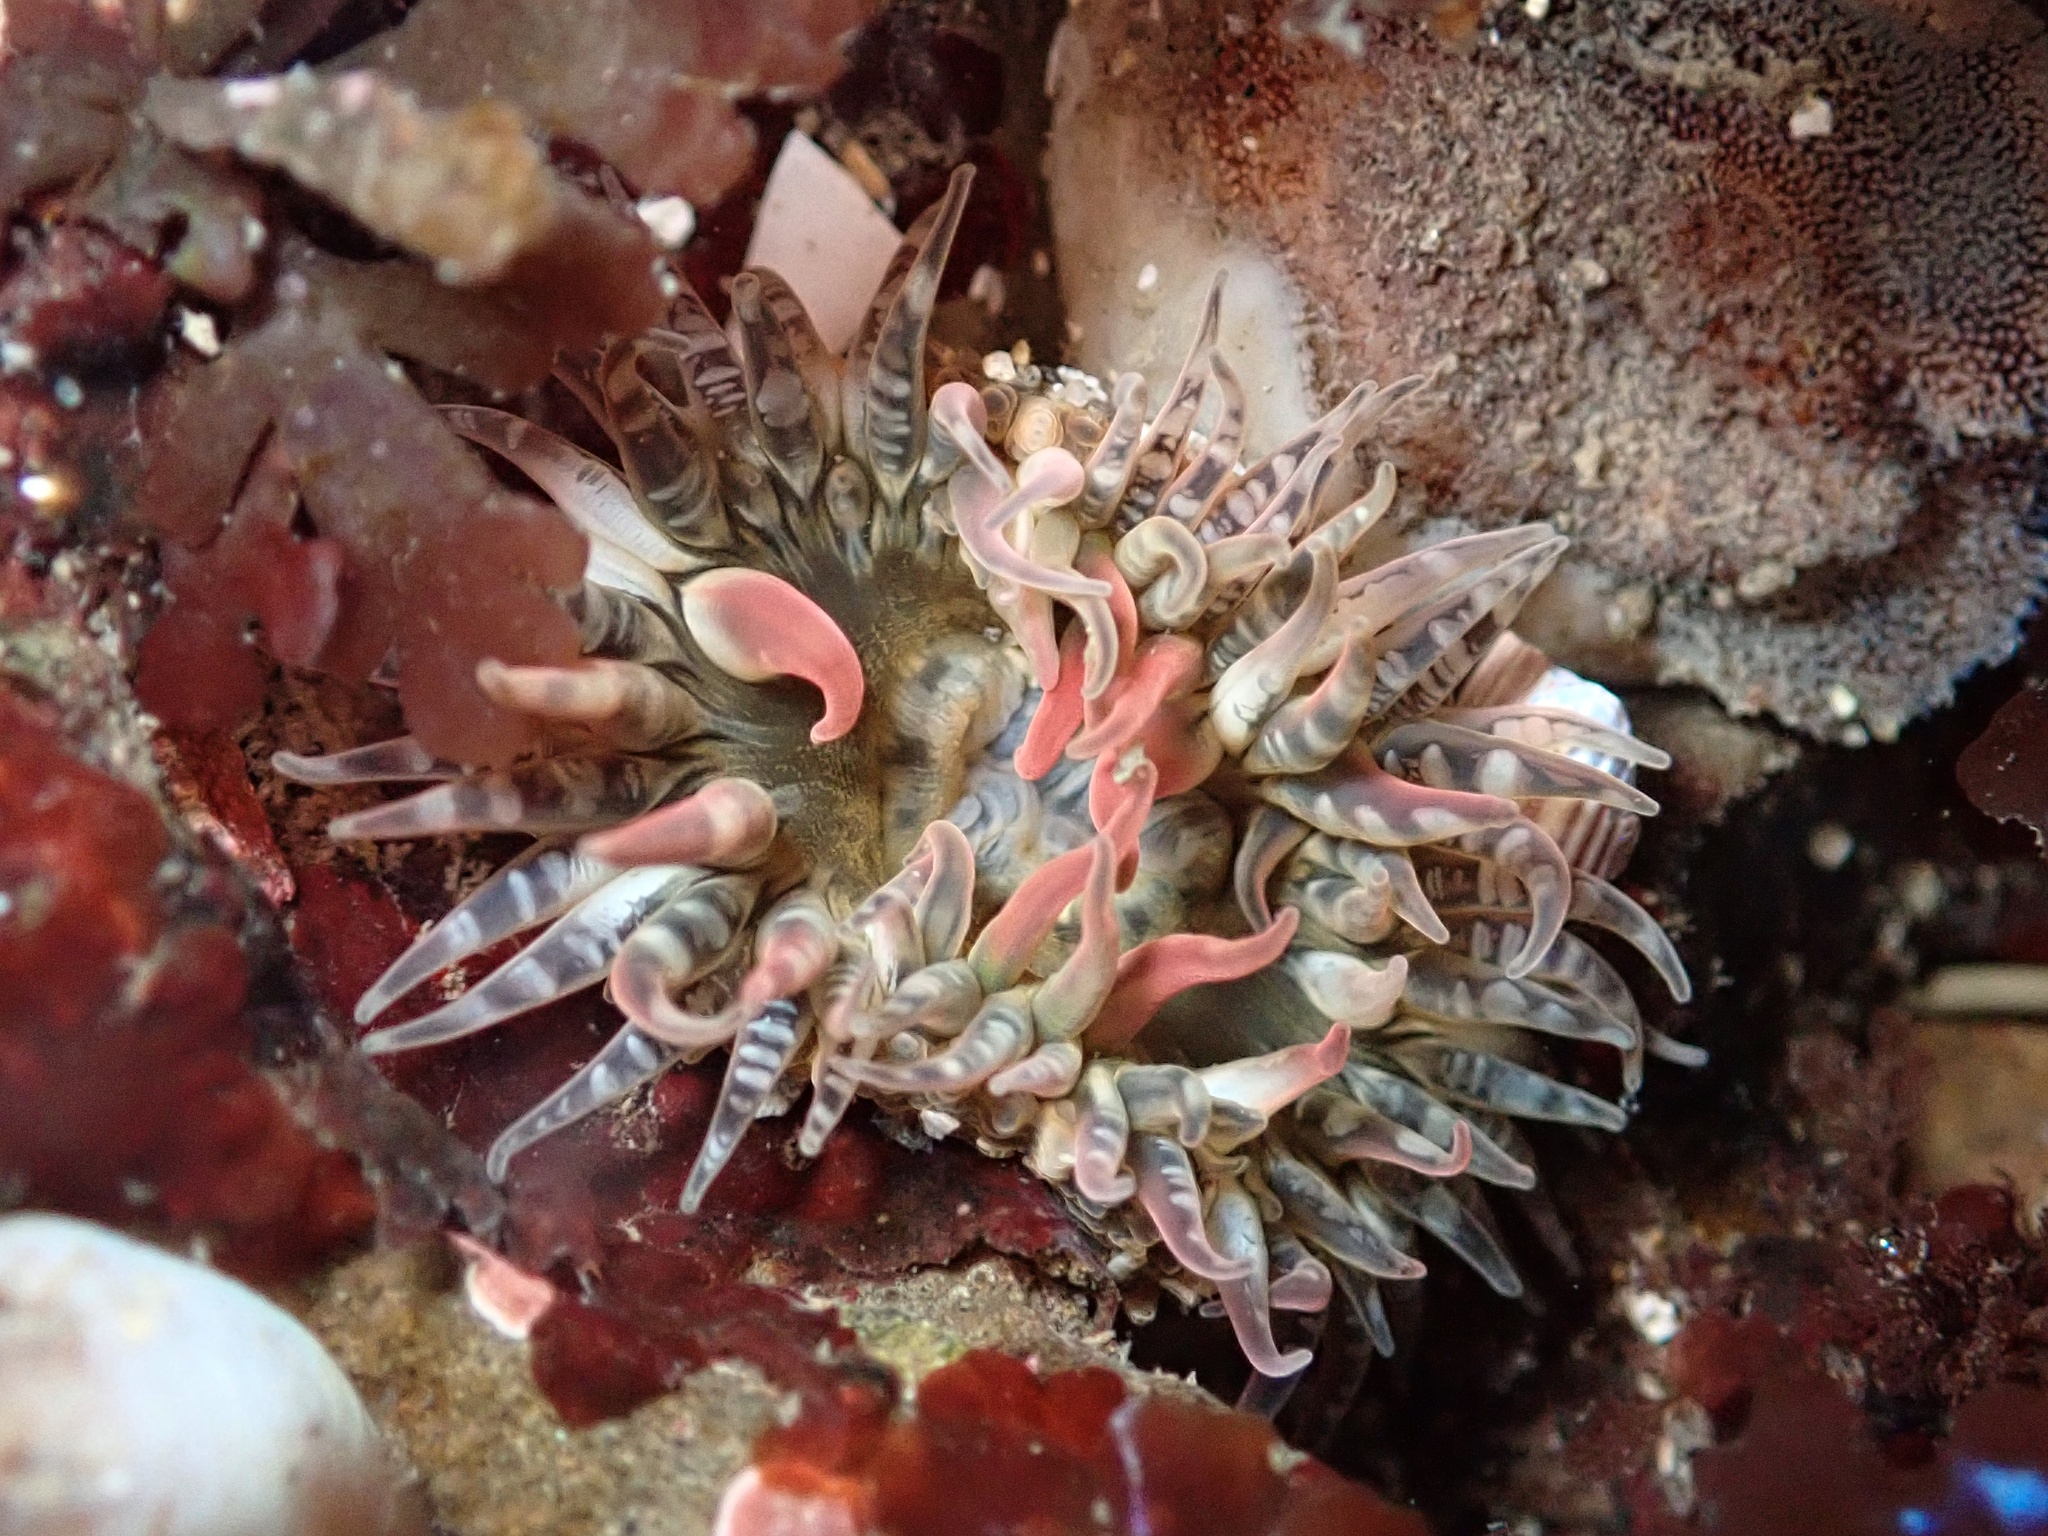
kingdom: Animalia
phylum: Cnidaria
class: Anthozoa
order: Actiniaria
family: Actiniidae
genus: Anthopleura
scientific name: Anthopleura artemisia
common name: Buried sea anemone
